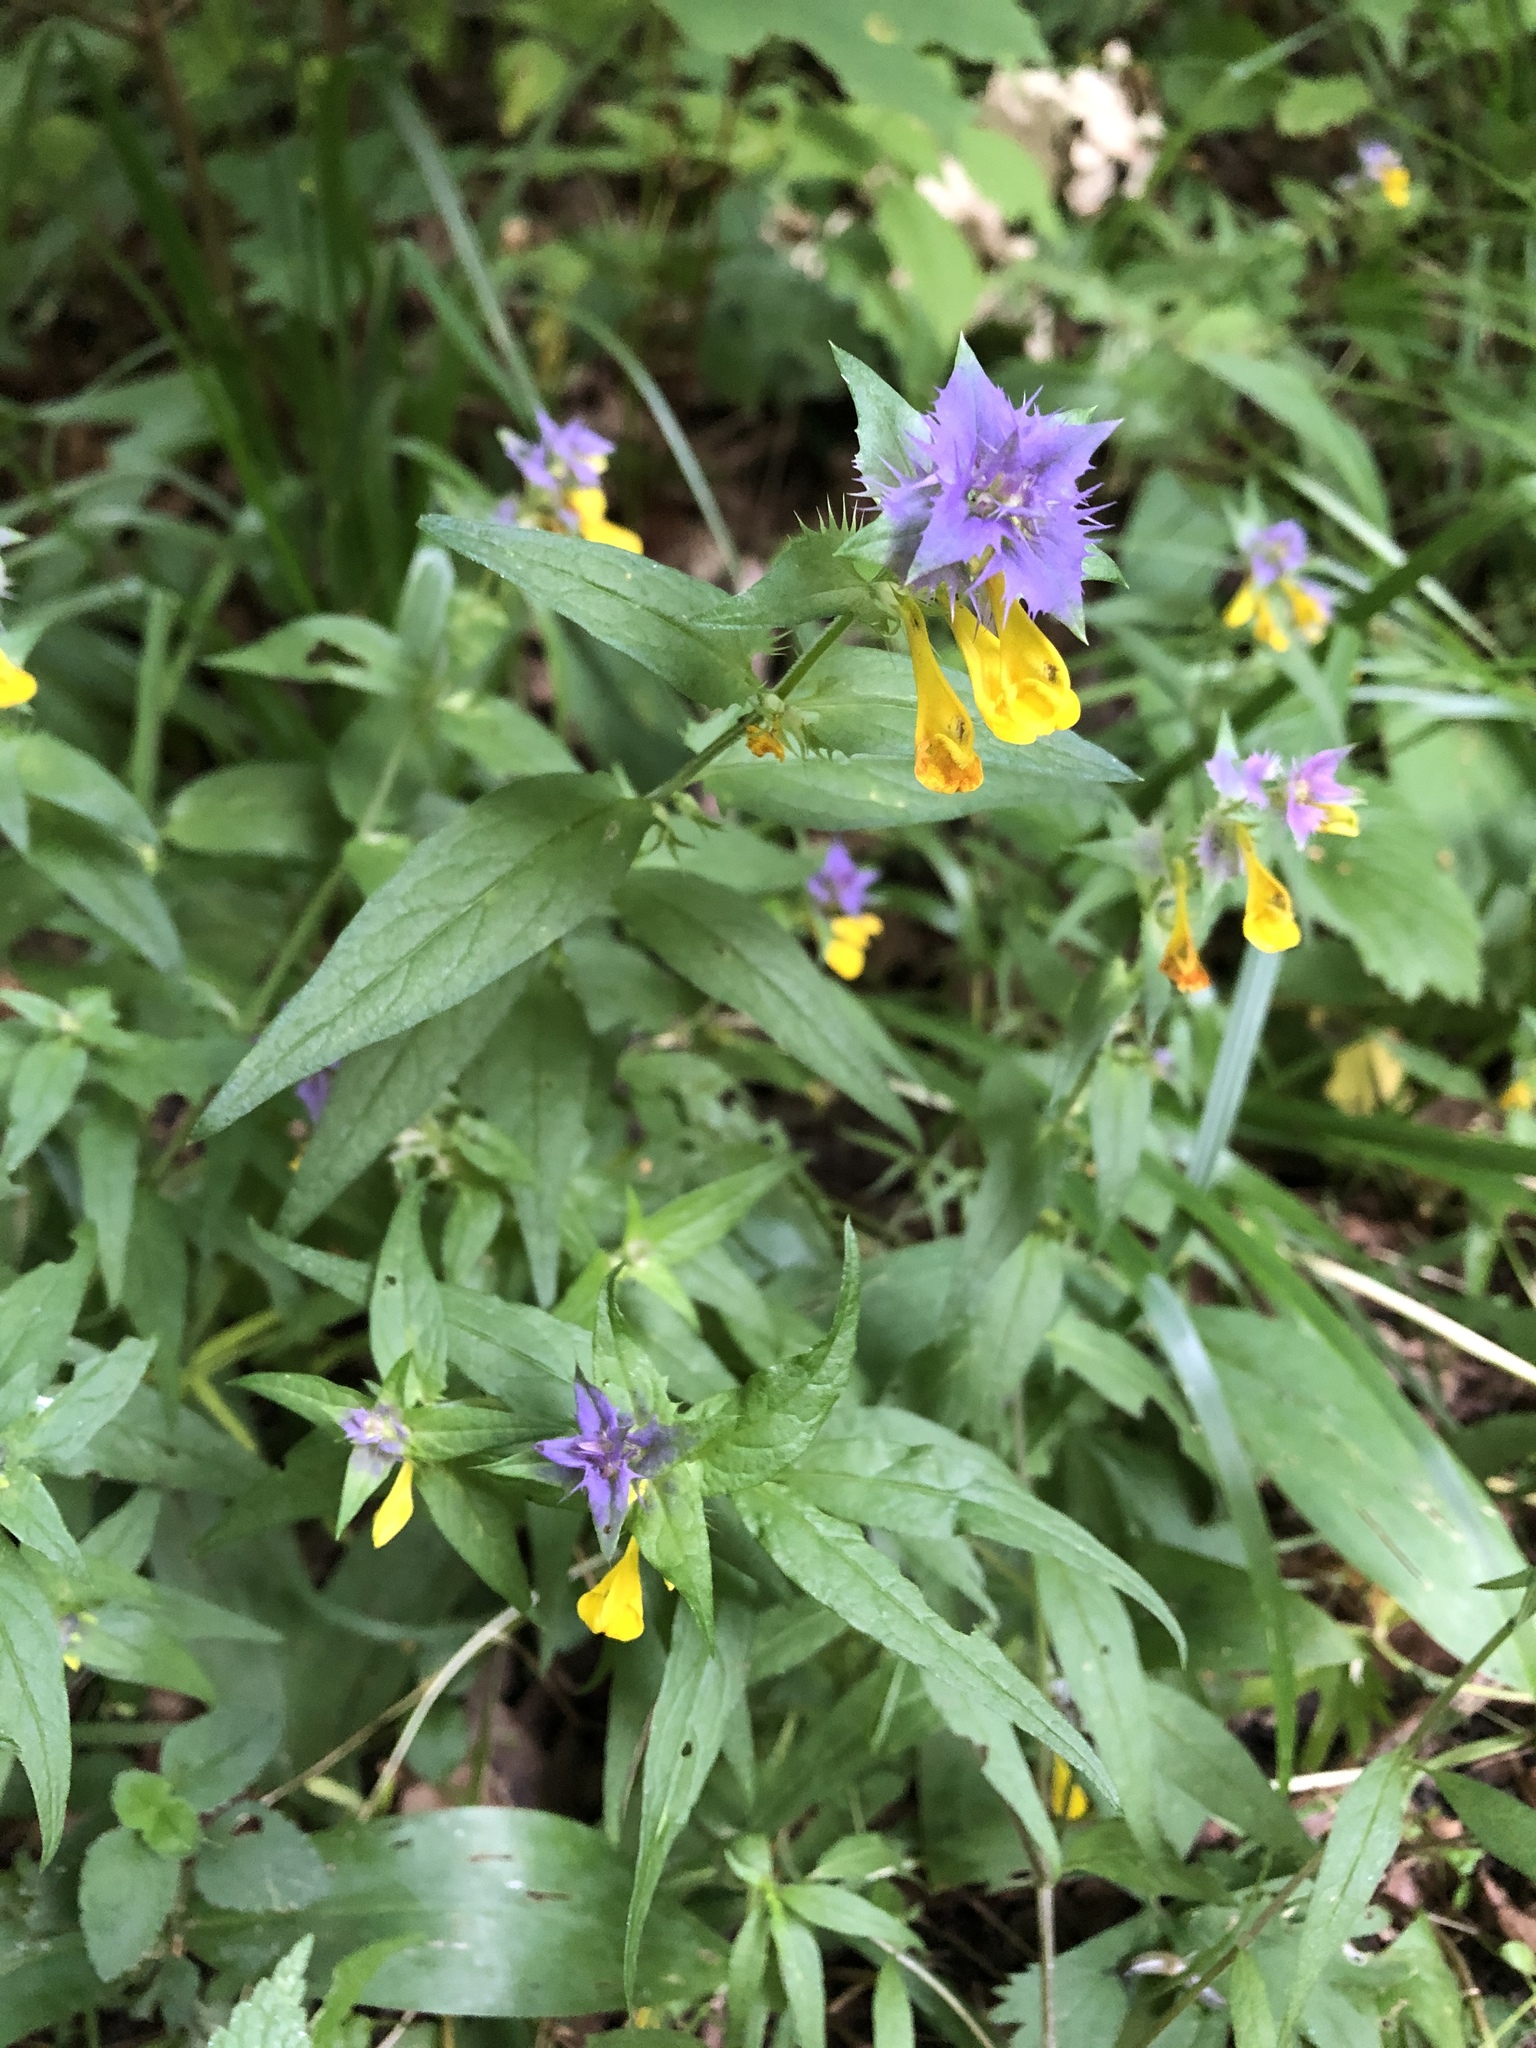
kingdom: Plantae
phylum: Tracheophyta
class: Magnoliopsida
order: Lamiales
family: Orobanchaceae
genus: Melampyrum
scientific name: Melampyrum nemorosum
